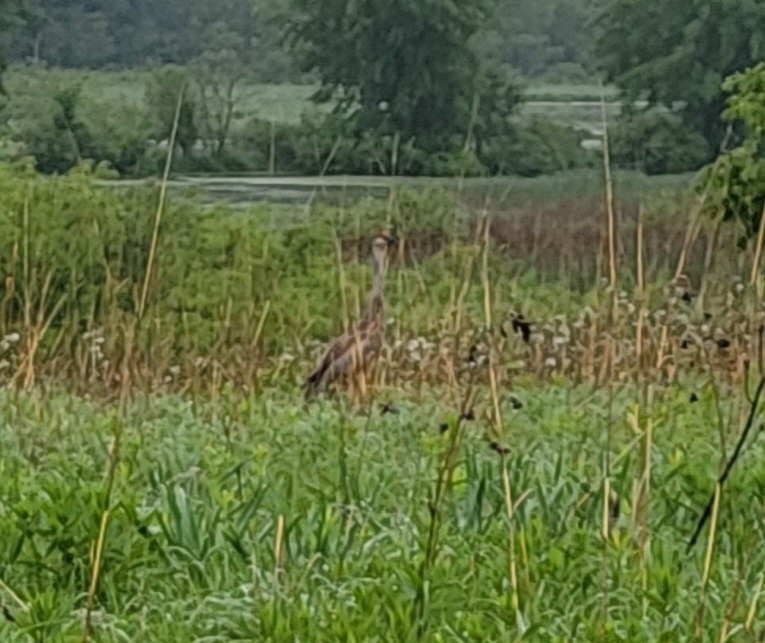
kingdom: Animalia
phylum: Chordata
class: Aves
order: Gruiformes
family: Gruidae
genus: Grus
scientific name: Grus canadensis
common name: Sandhill crane
